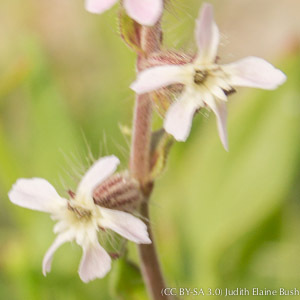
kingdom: Plantae
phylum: Tracheophyta
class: Magnoliopsida
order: Caryophyllales
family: Caryophyllaceae
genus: Silene
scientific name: Silene gallica
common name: Small-flowered catchfly
